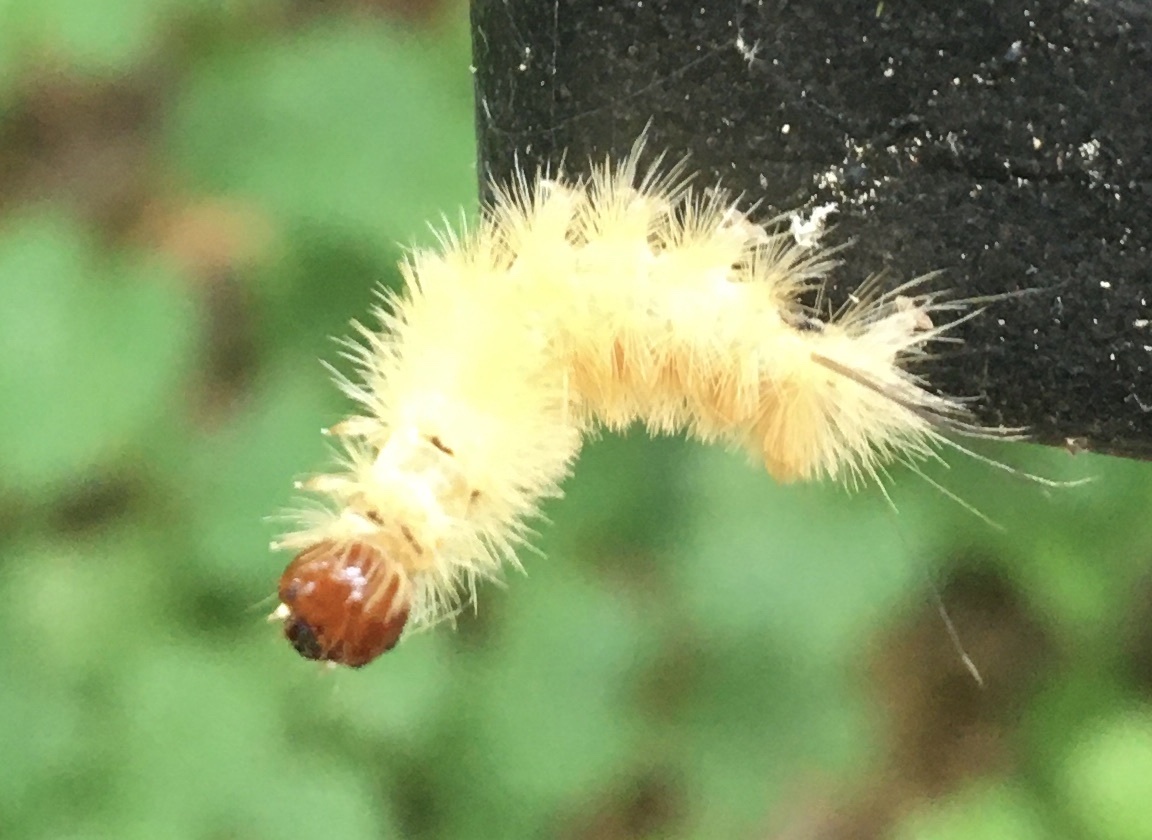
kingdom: Animalia
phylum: Arthropoda
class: Insecta
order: Lepidoptera
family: Erebidae
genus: Halysidota
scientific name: Halysidota tessellaris
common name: Banded tussock moth
